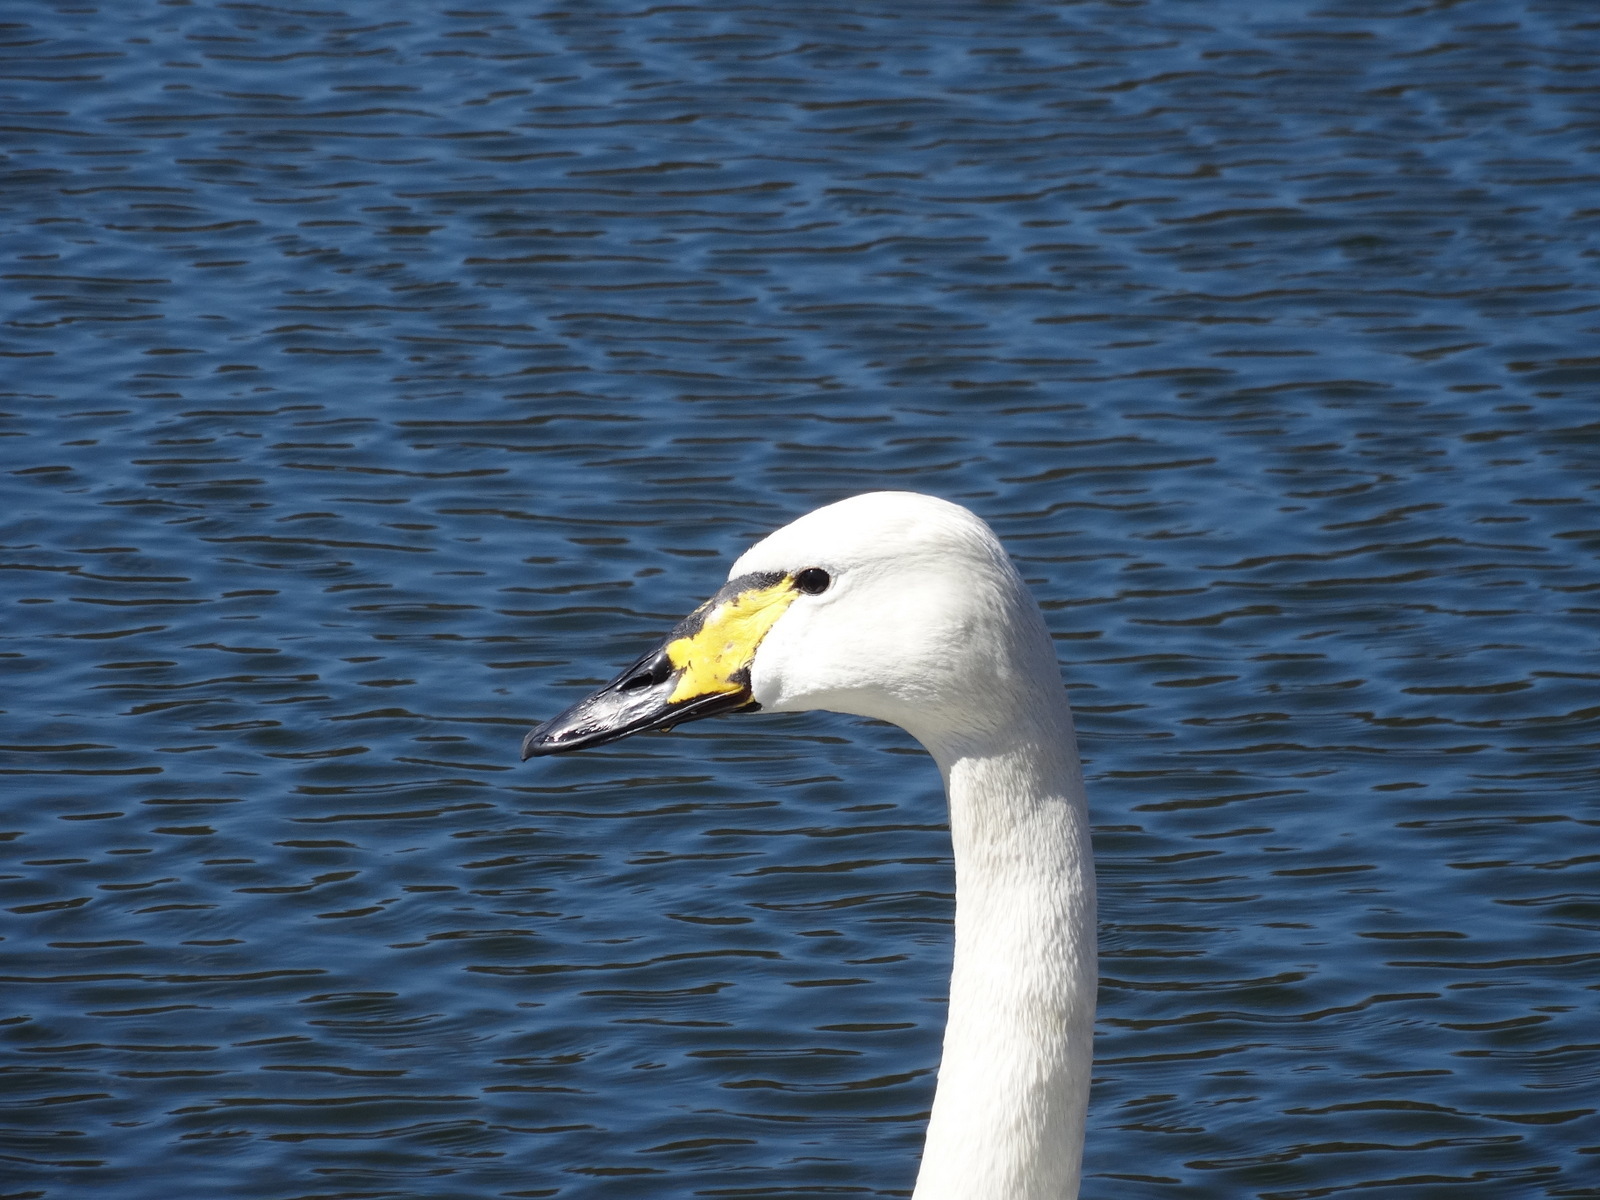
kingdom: Animalia
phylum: Chordata
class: Aves
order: Anseriformes
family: Anatidae
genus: Cygnus
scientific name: Cygnus
